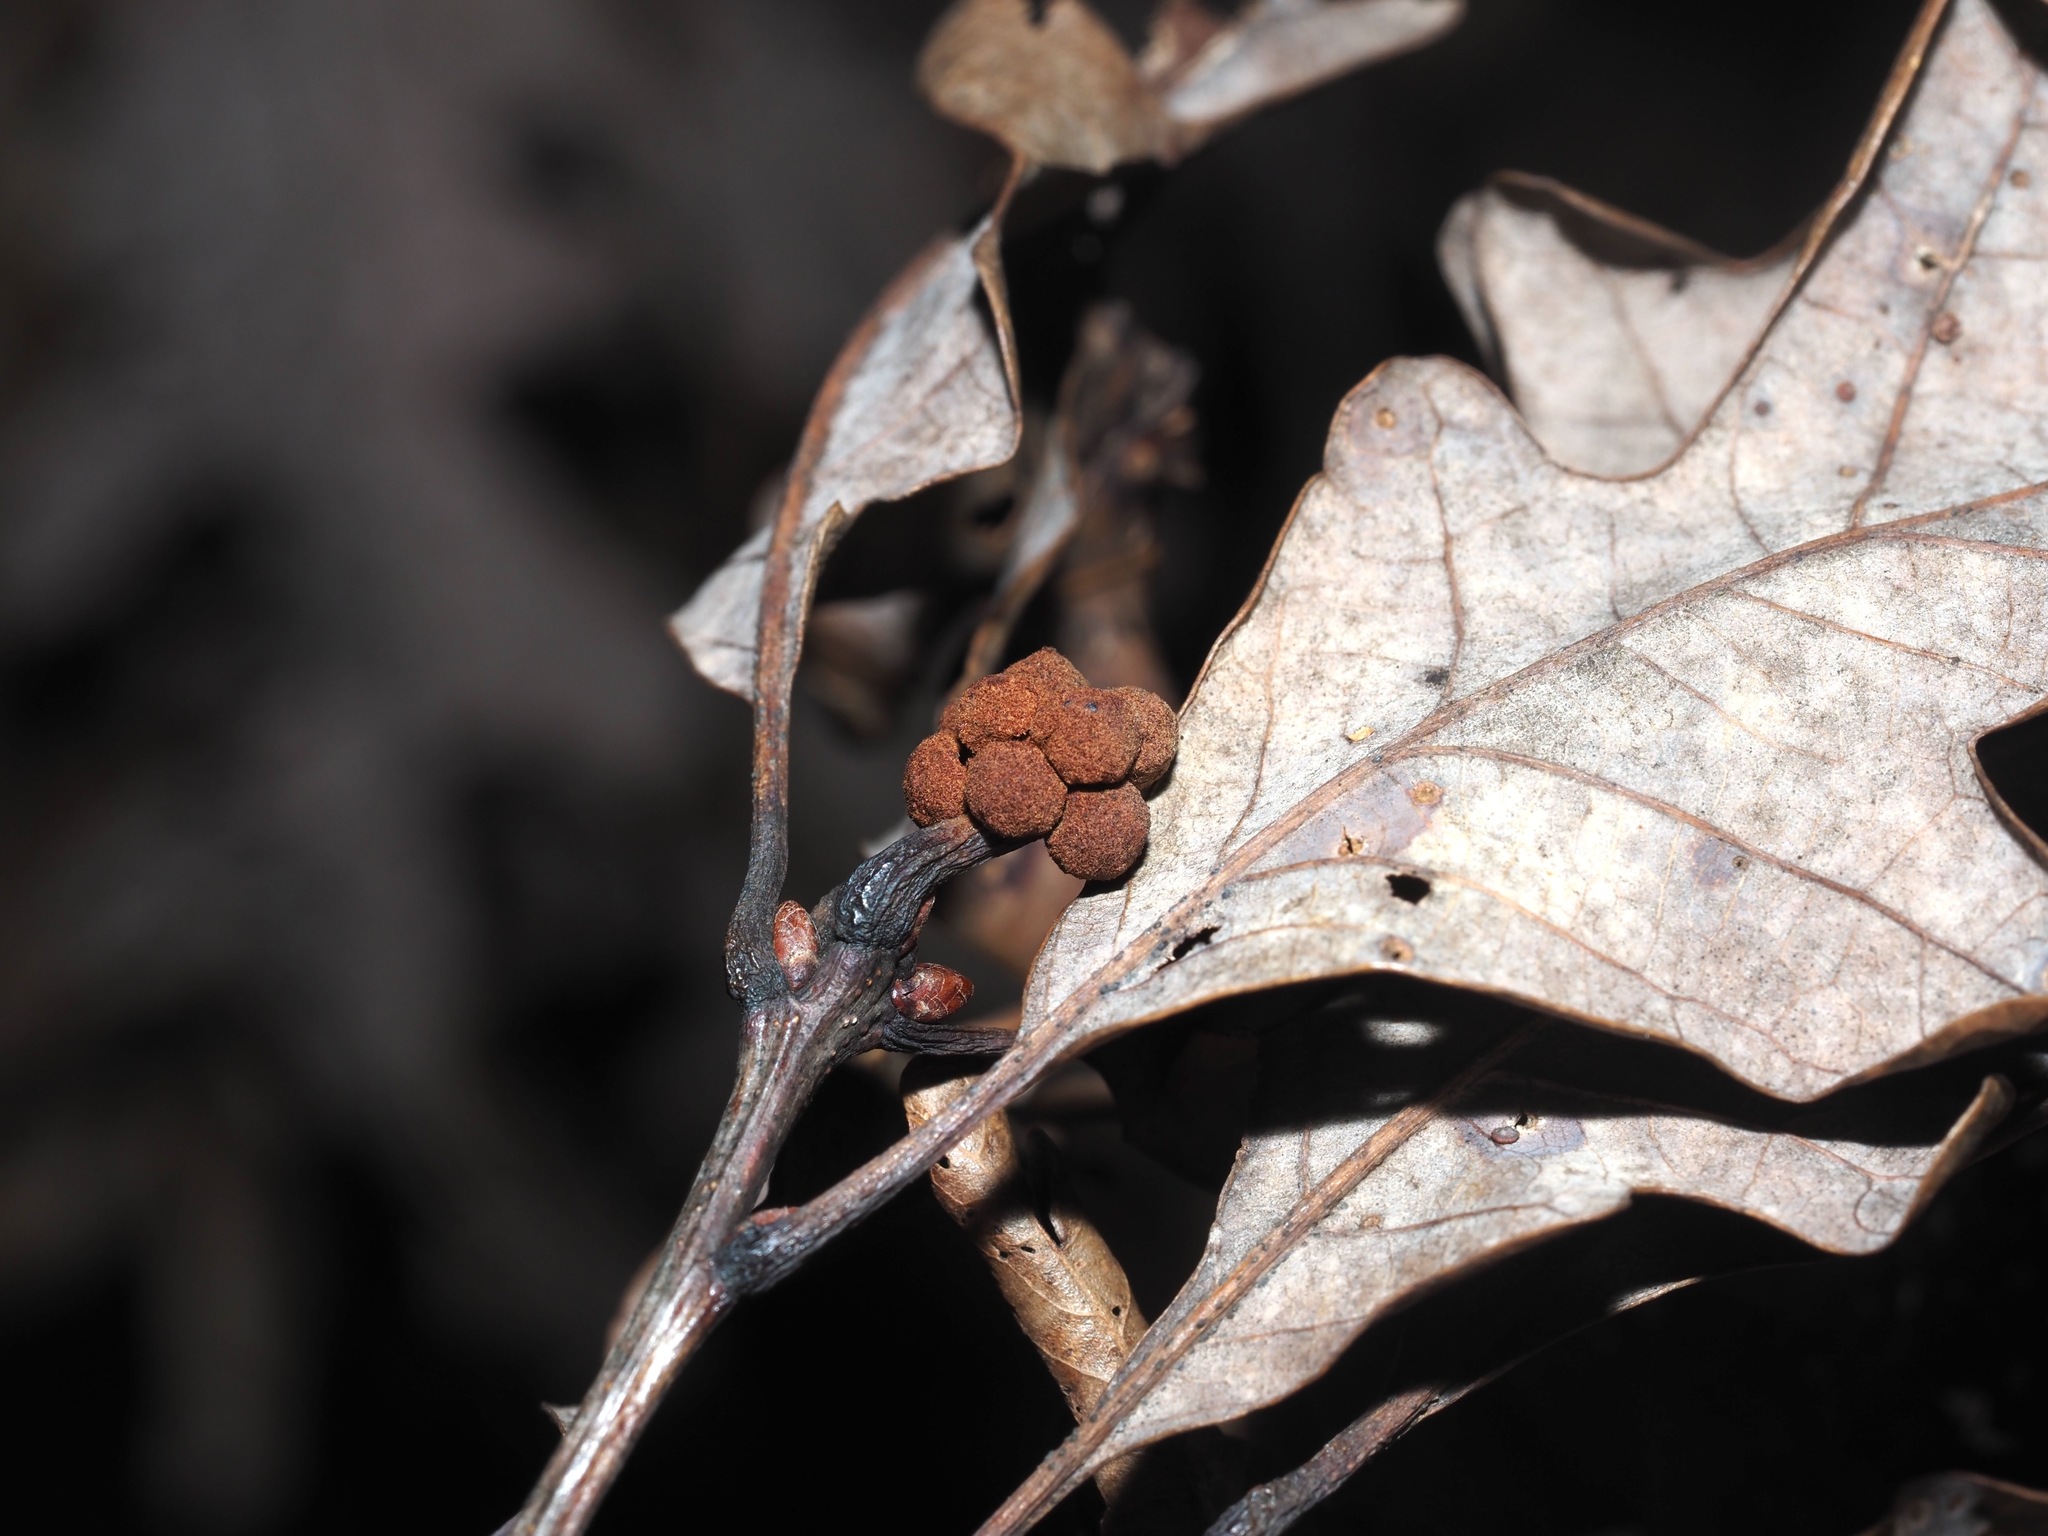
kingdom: Animalia
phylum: Arthropoda
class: Insecta
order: Hymenoptera
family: Cynipidae
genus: Andricus
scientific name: Andricus
